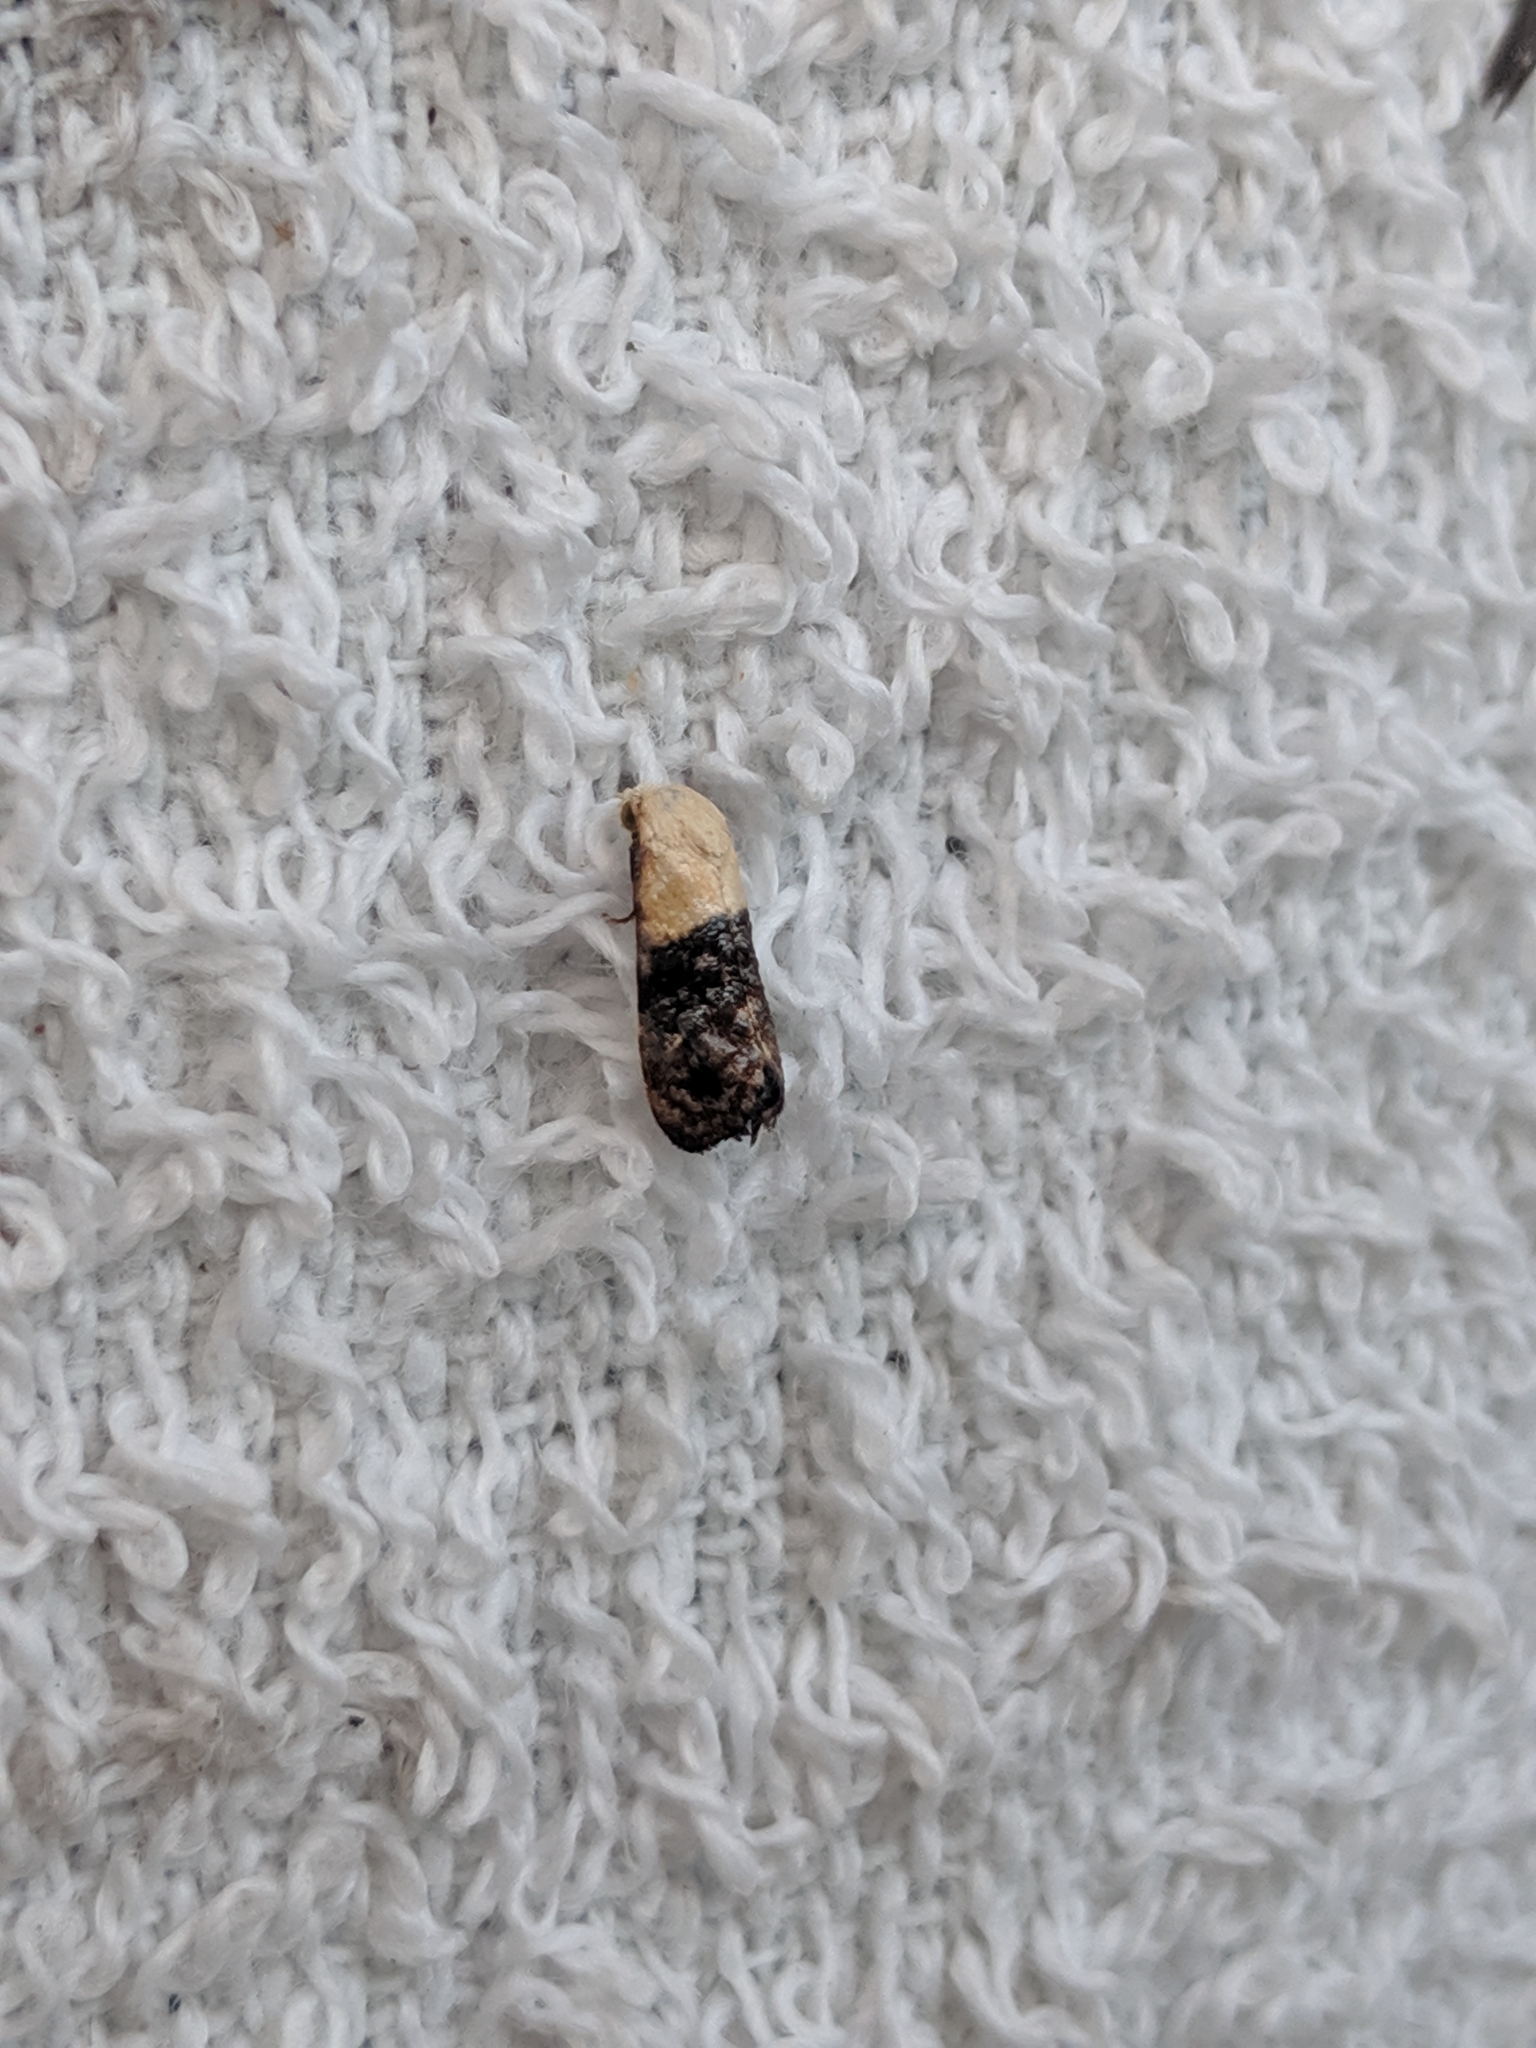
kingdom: Animalia
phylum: Arthropoda
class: Insecta
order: Lepidoptera
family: Tortricidae
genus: Eugnosta
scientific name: Eugnosta erigeronana
